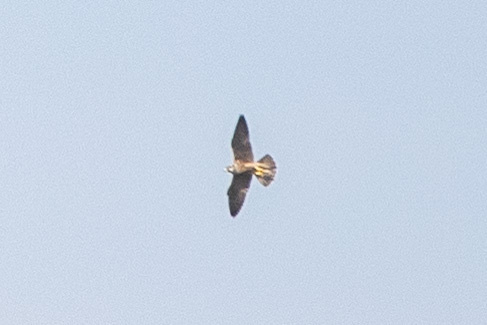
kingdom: Animalia
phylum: Chordata
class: Aves
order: Falconiformes
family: Falconidae
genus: Falco
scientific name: Falco peregrinus
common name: Peregrine falcon
